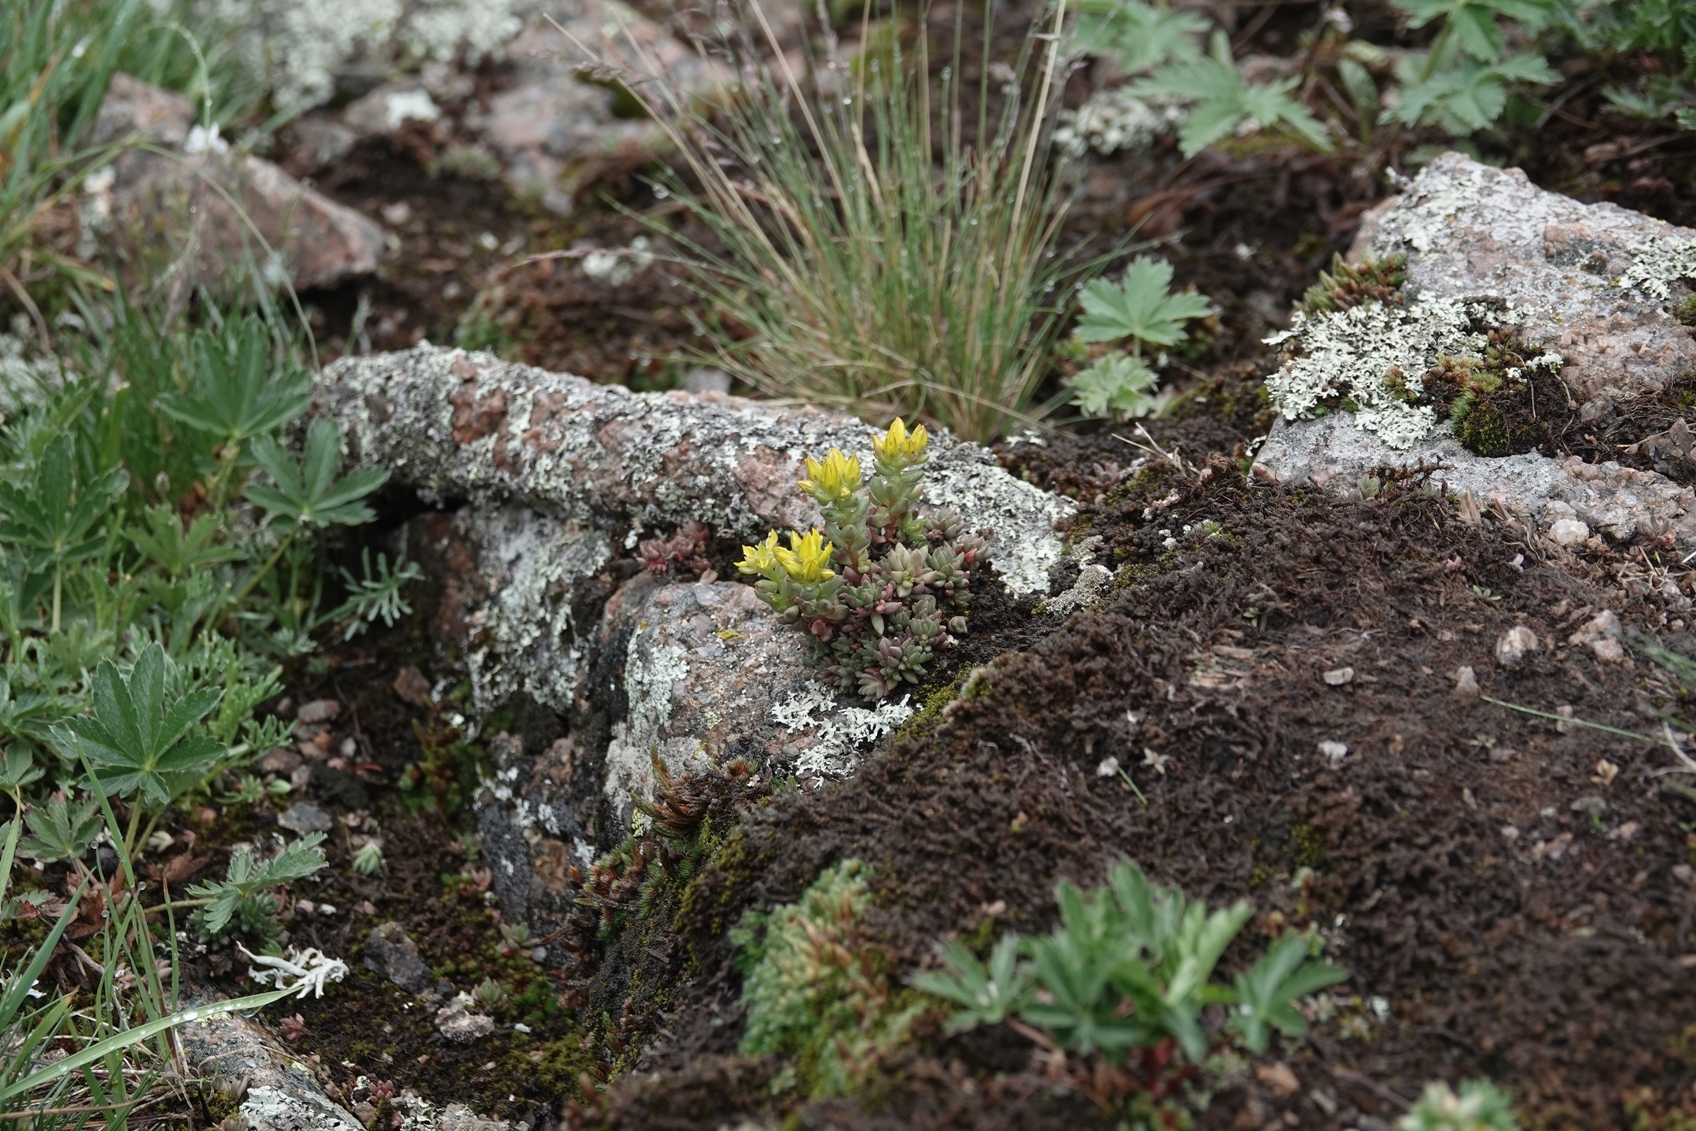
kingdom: Plantae
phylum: Tracheophyta
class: Magnoliopsida
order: Saxifragales
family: Crassulaceae
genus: Sedum
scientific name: Sedum lanceolatum
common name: Common stonecrop
